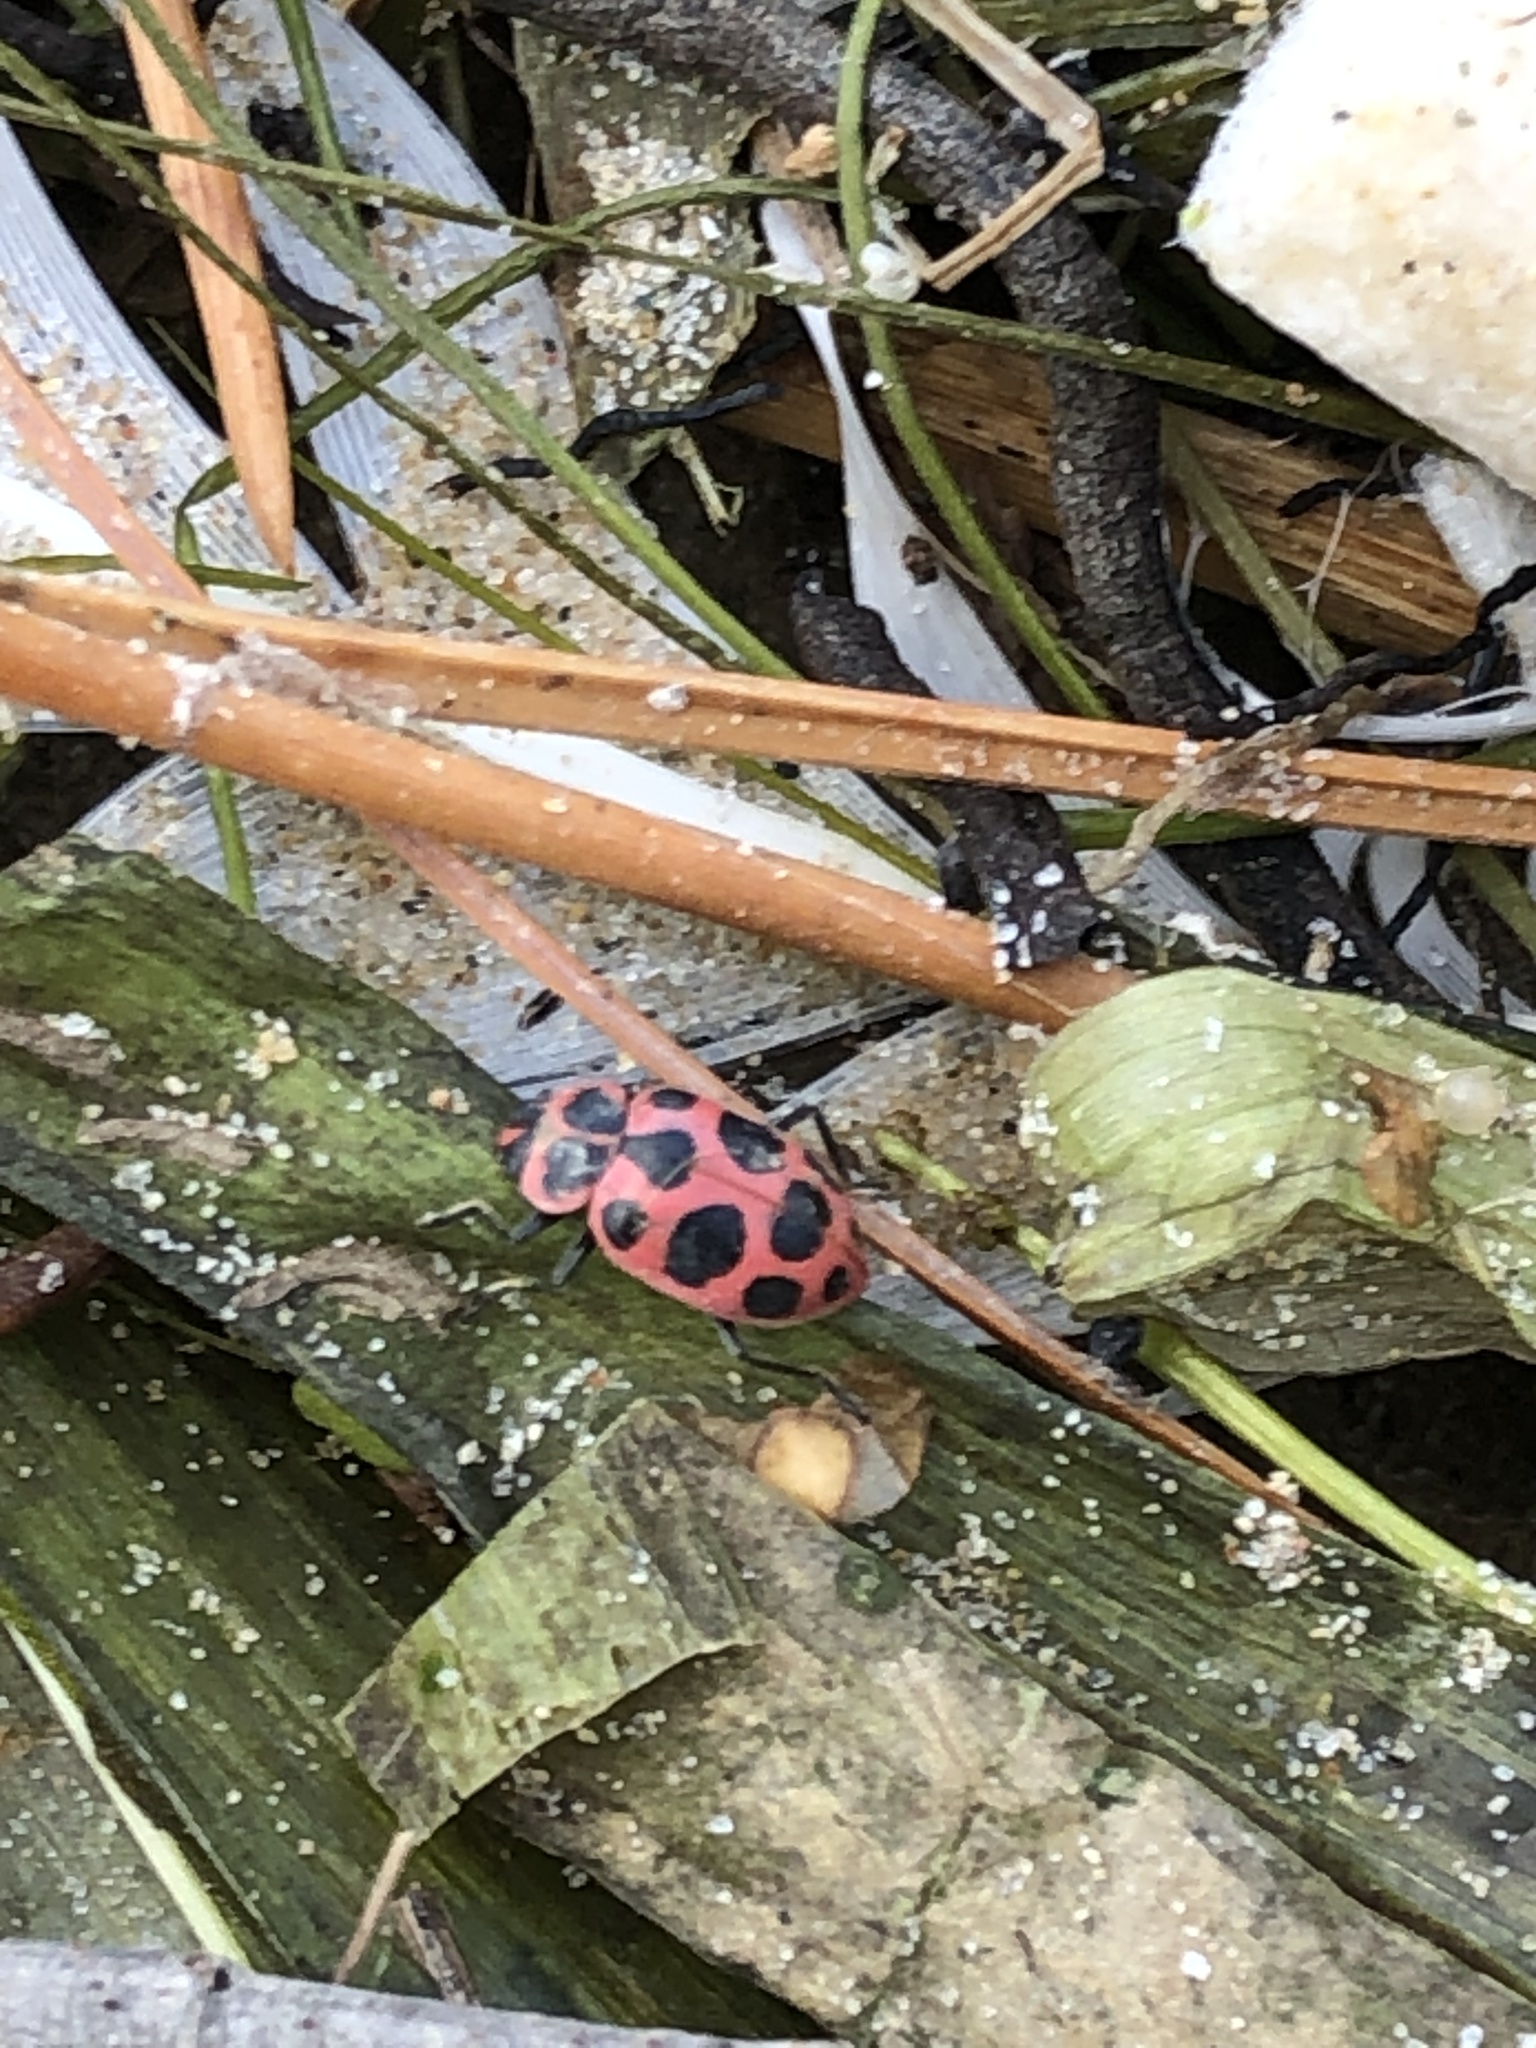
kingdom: Animalia
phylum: Arthropoda
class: Insecta
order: Coleoptera
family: Coccinellidae
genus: Coleomegilla
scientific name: Coleomegilla maculata
